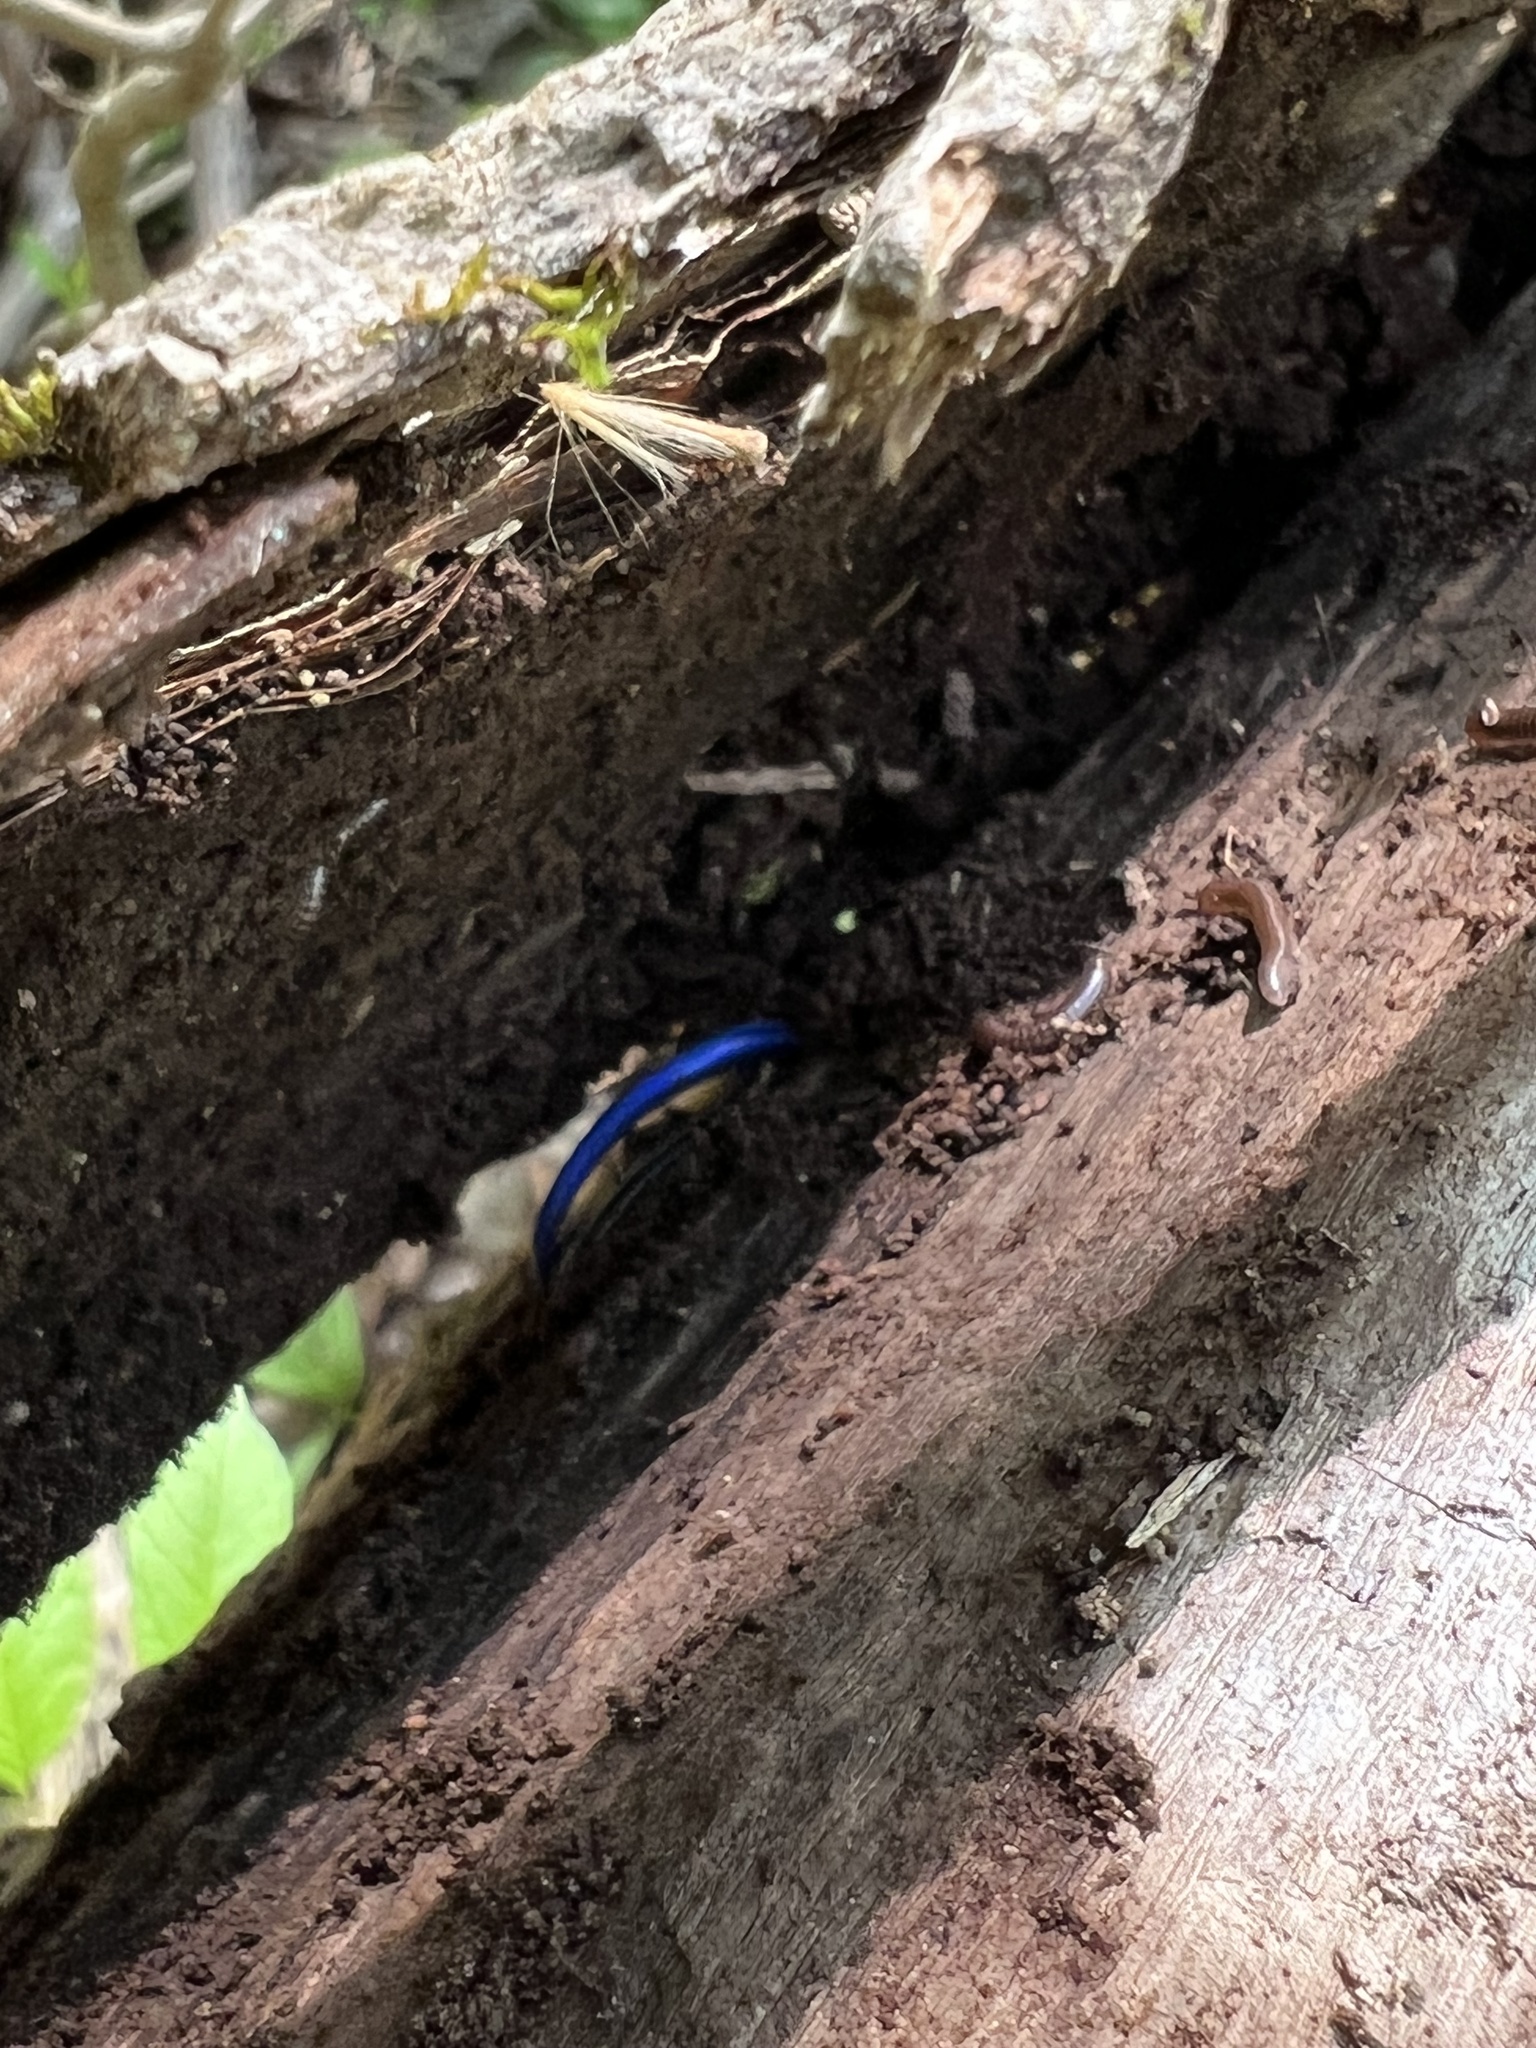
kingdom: Animalia
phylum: Chordata
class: Squamata
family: Scincidae
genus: Plestiodon
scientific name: Plestiodon
